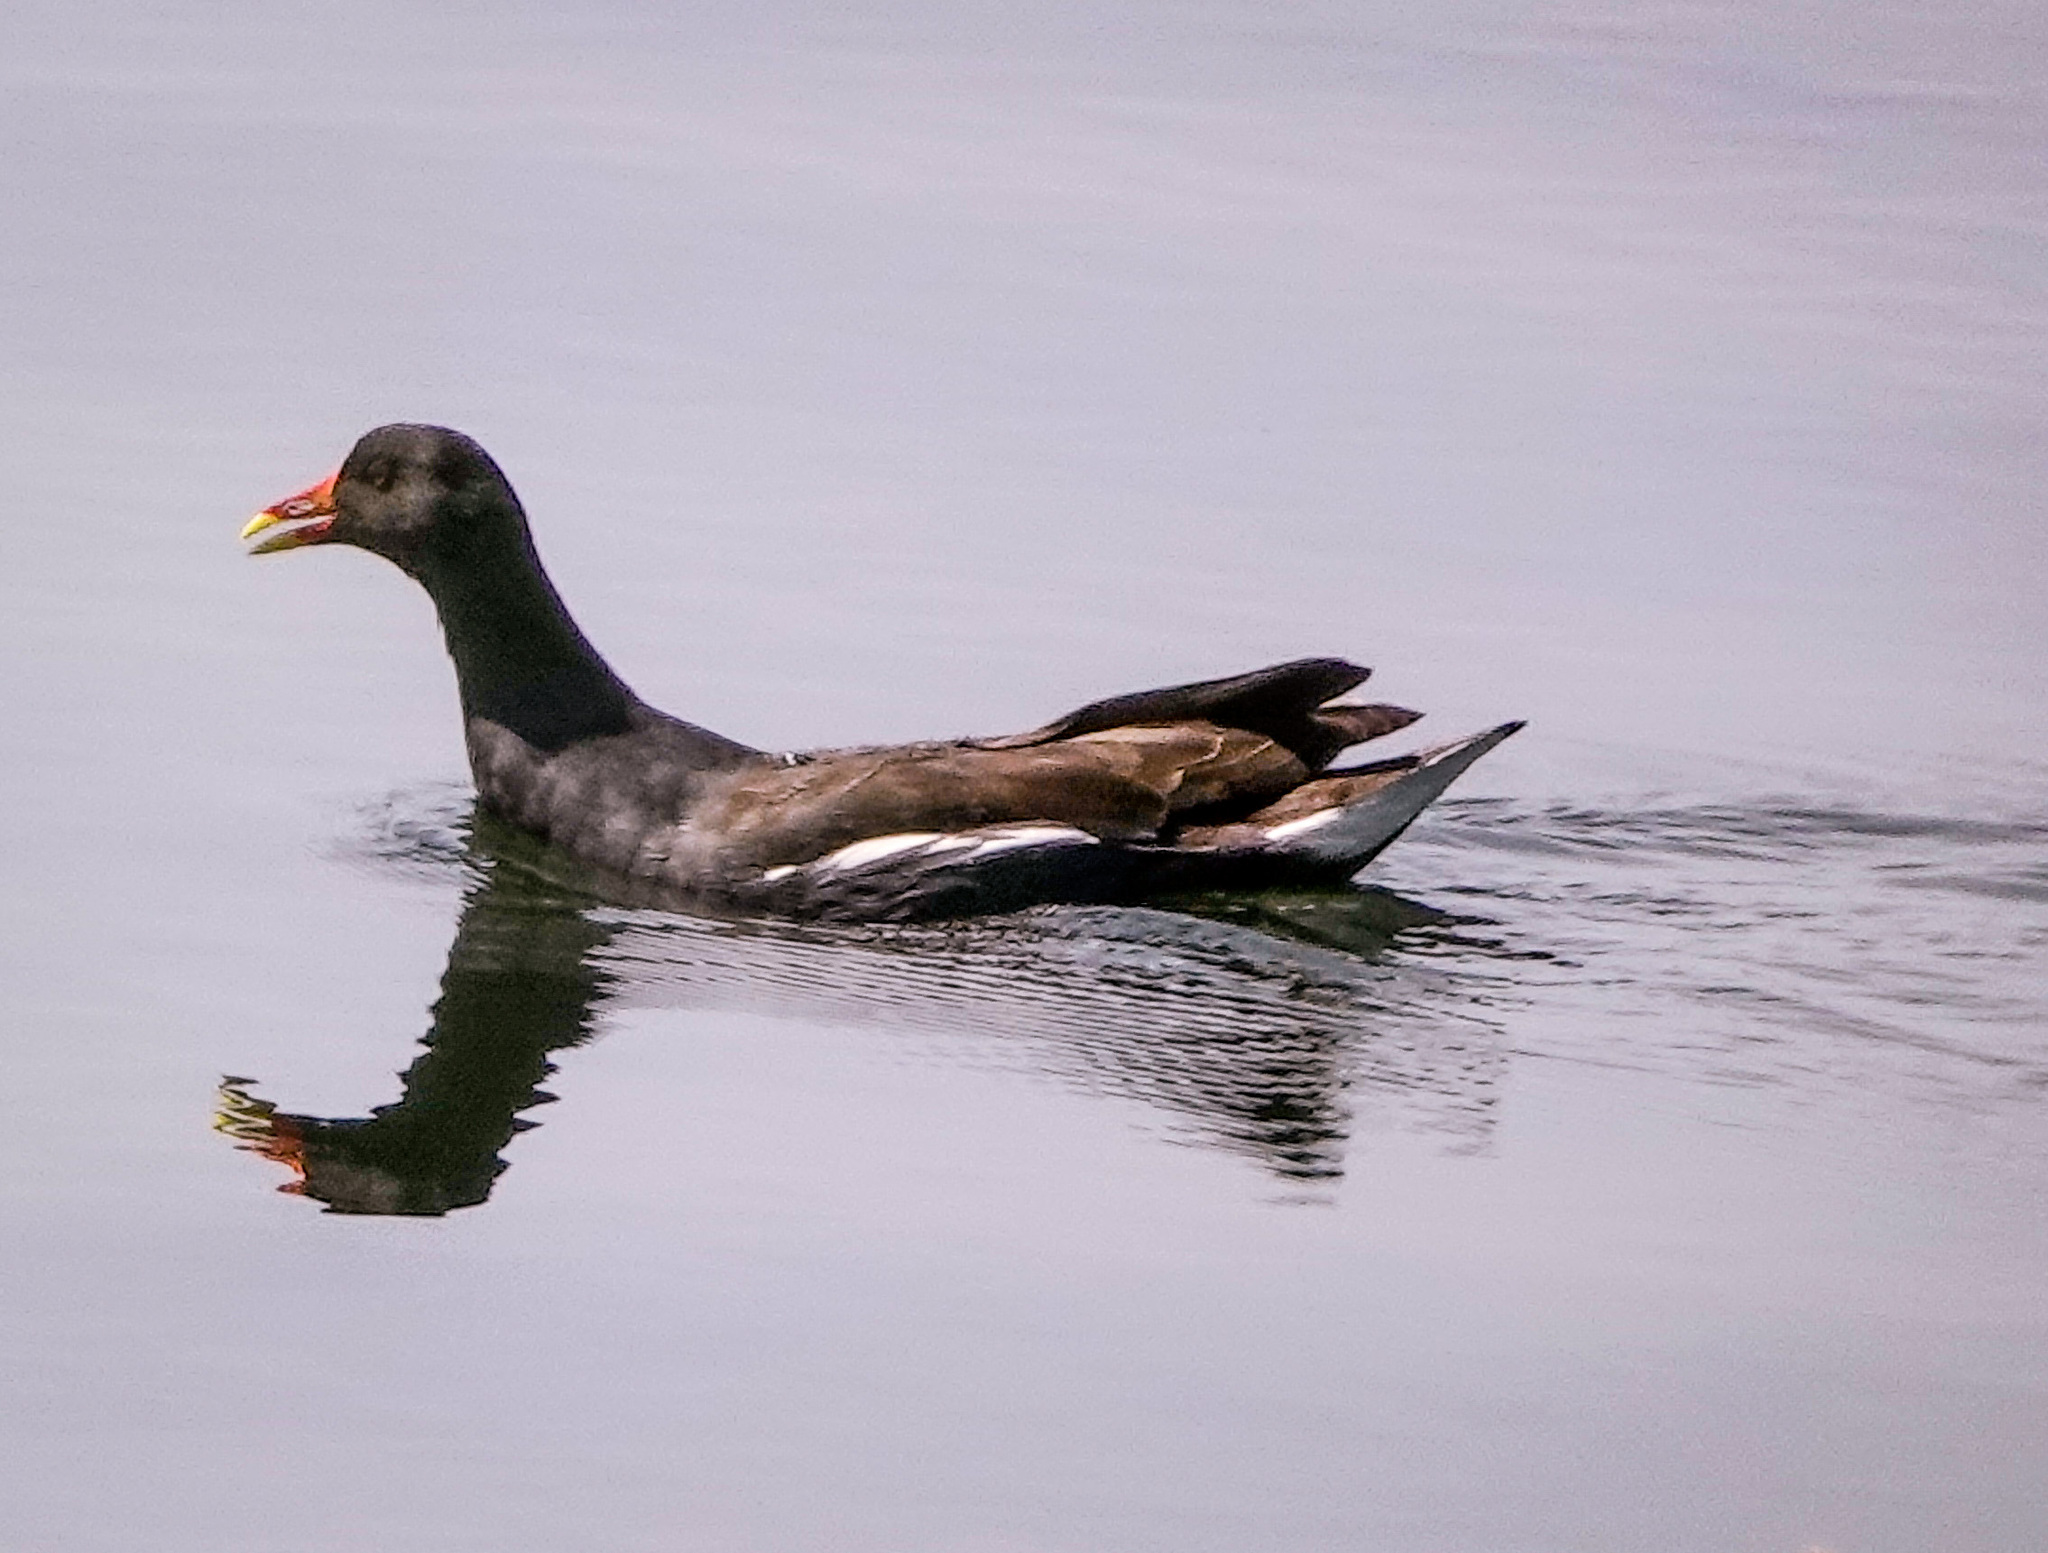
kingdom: Animalia
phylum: Chordata
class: Aves
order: Gruiformes
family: Rallidae
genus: Gallinula
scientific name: Gallinula chloropus
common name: Common moorhen
